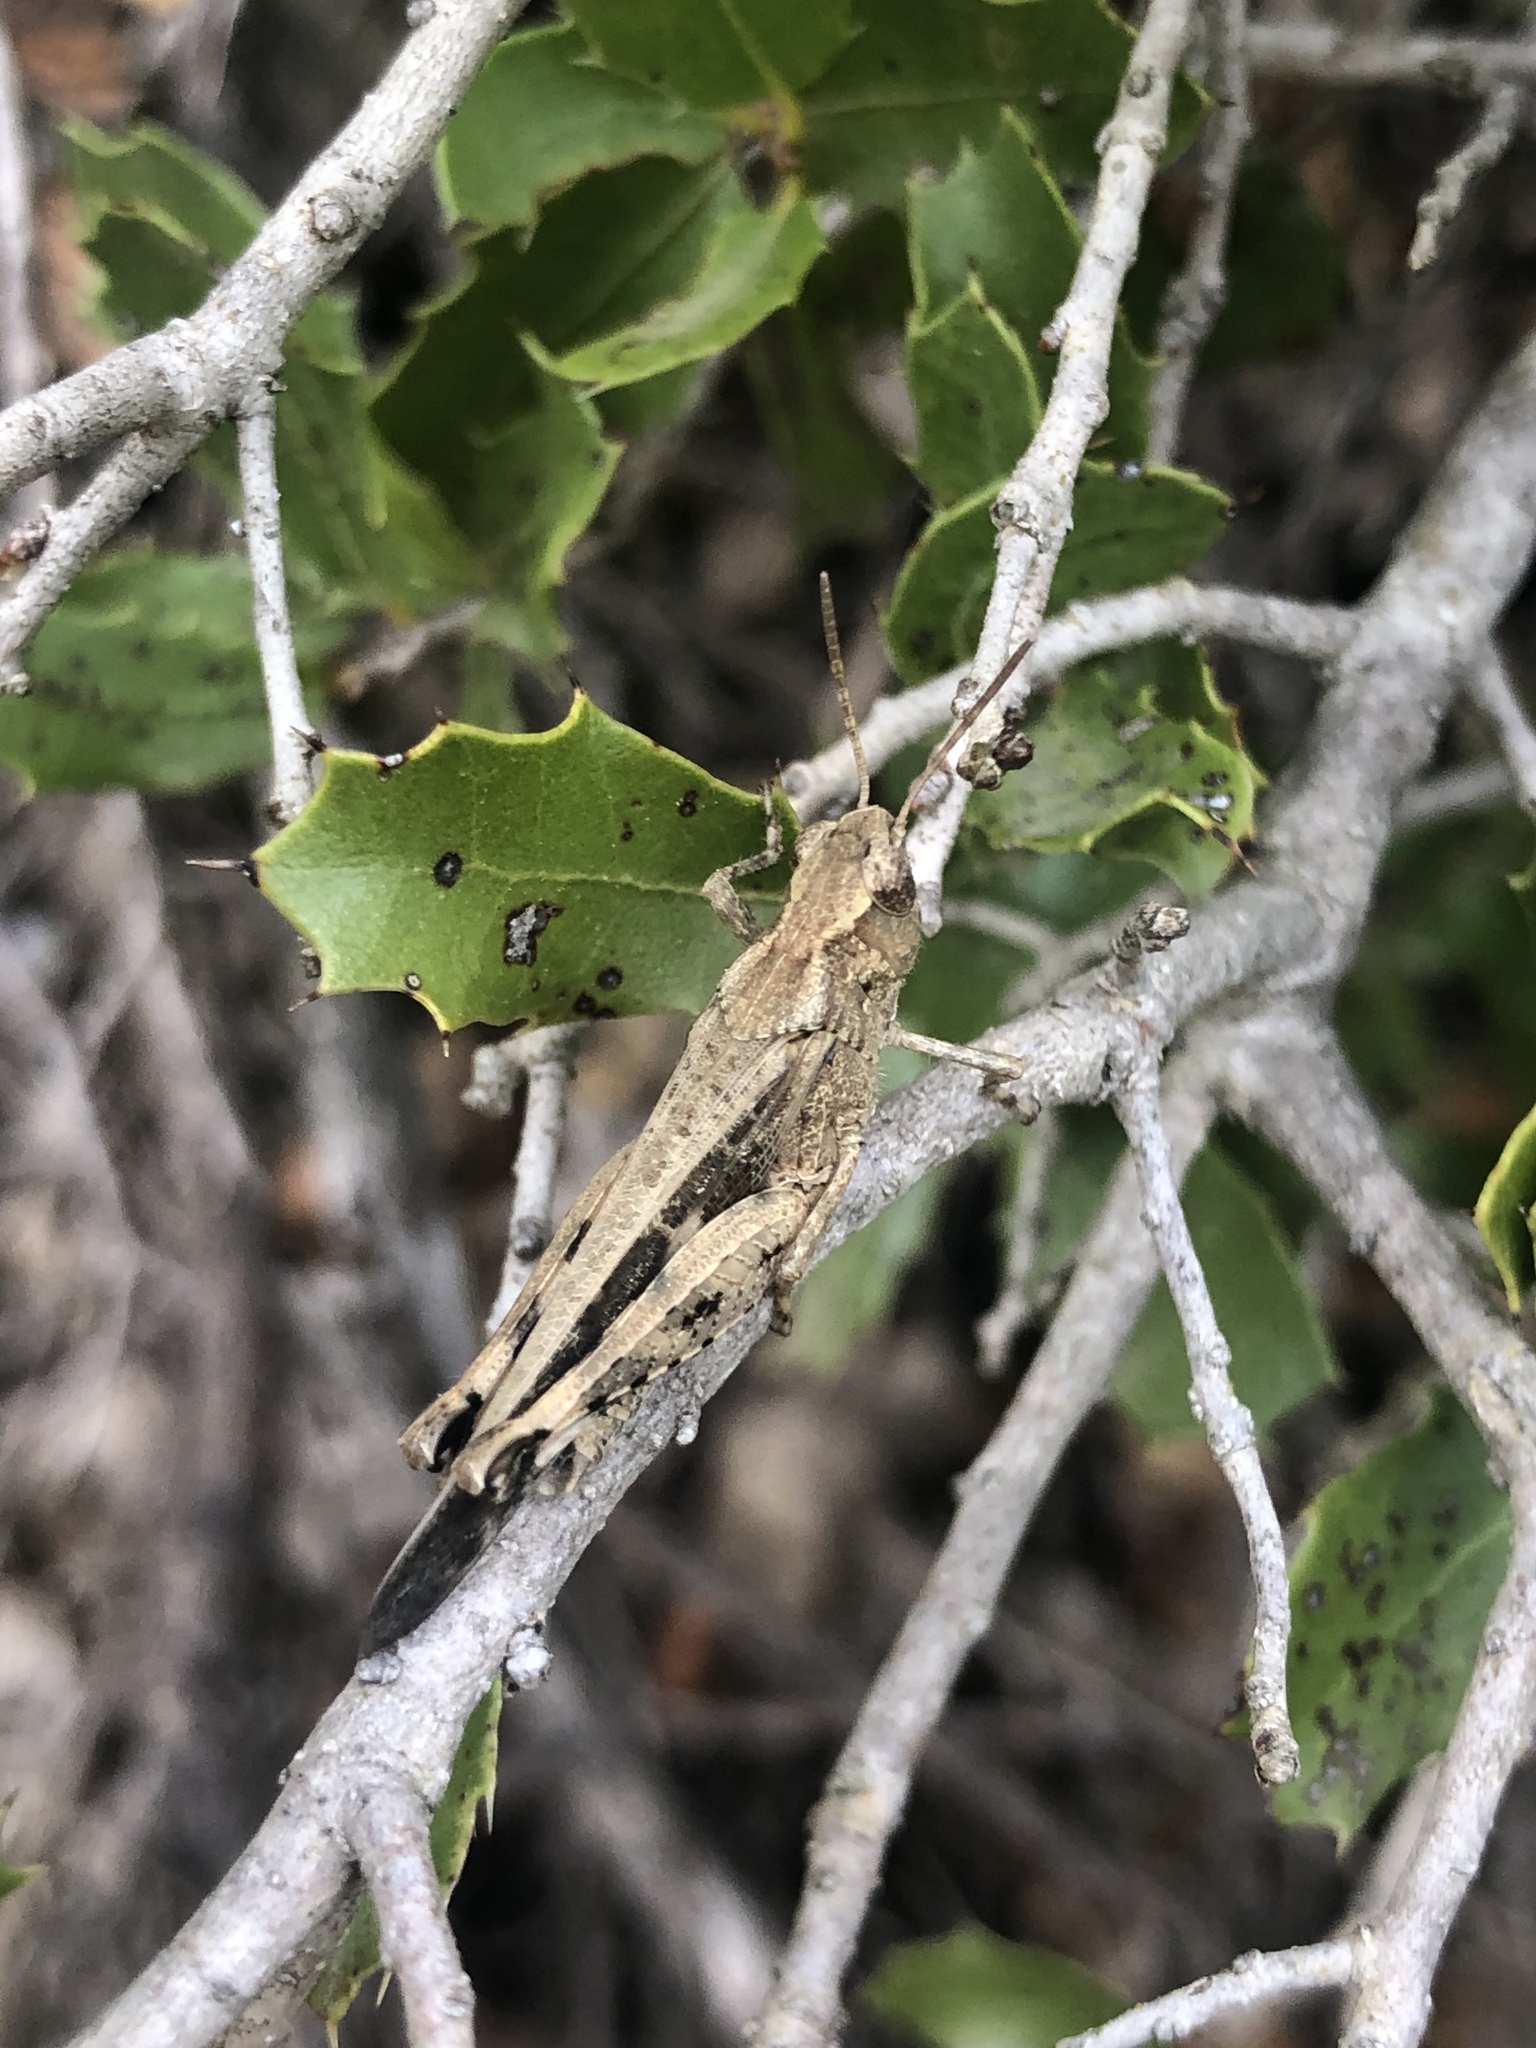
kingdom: Animalia
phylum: Arthropoda
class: Insecta
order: Orthoptera
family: Acrididae
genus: Aiolopus
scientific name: Aiolopus strepens
